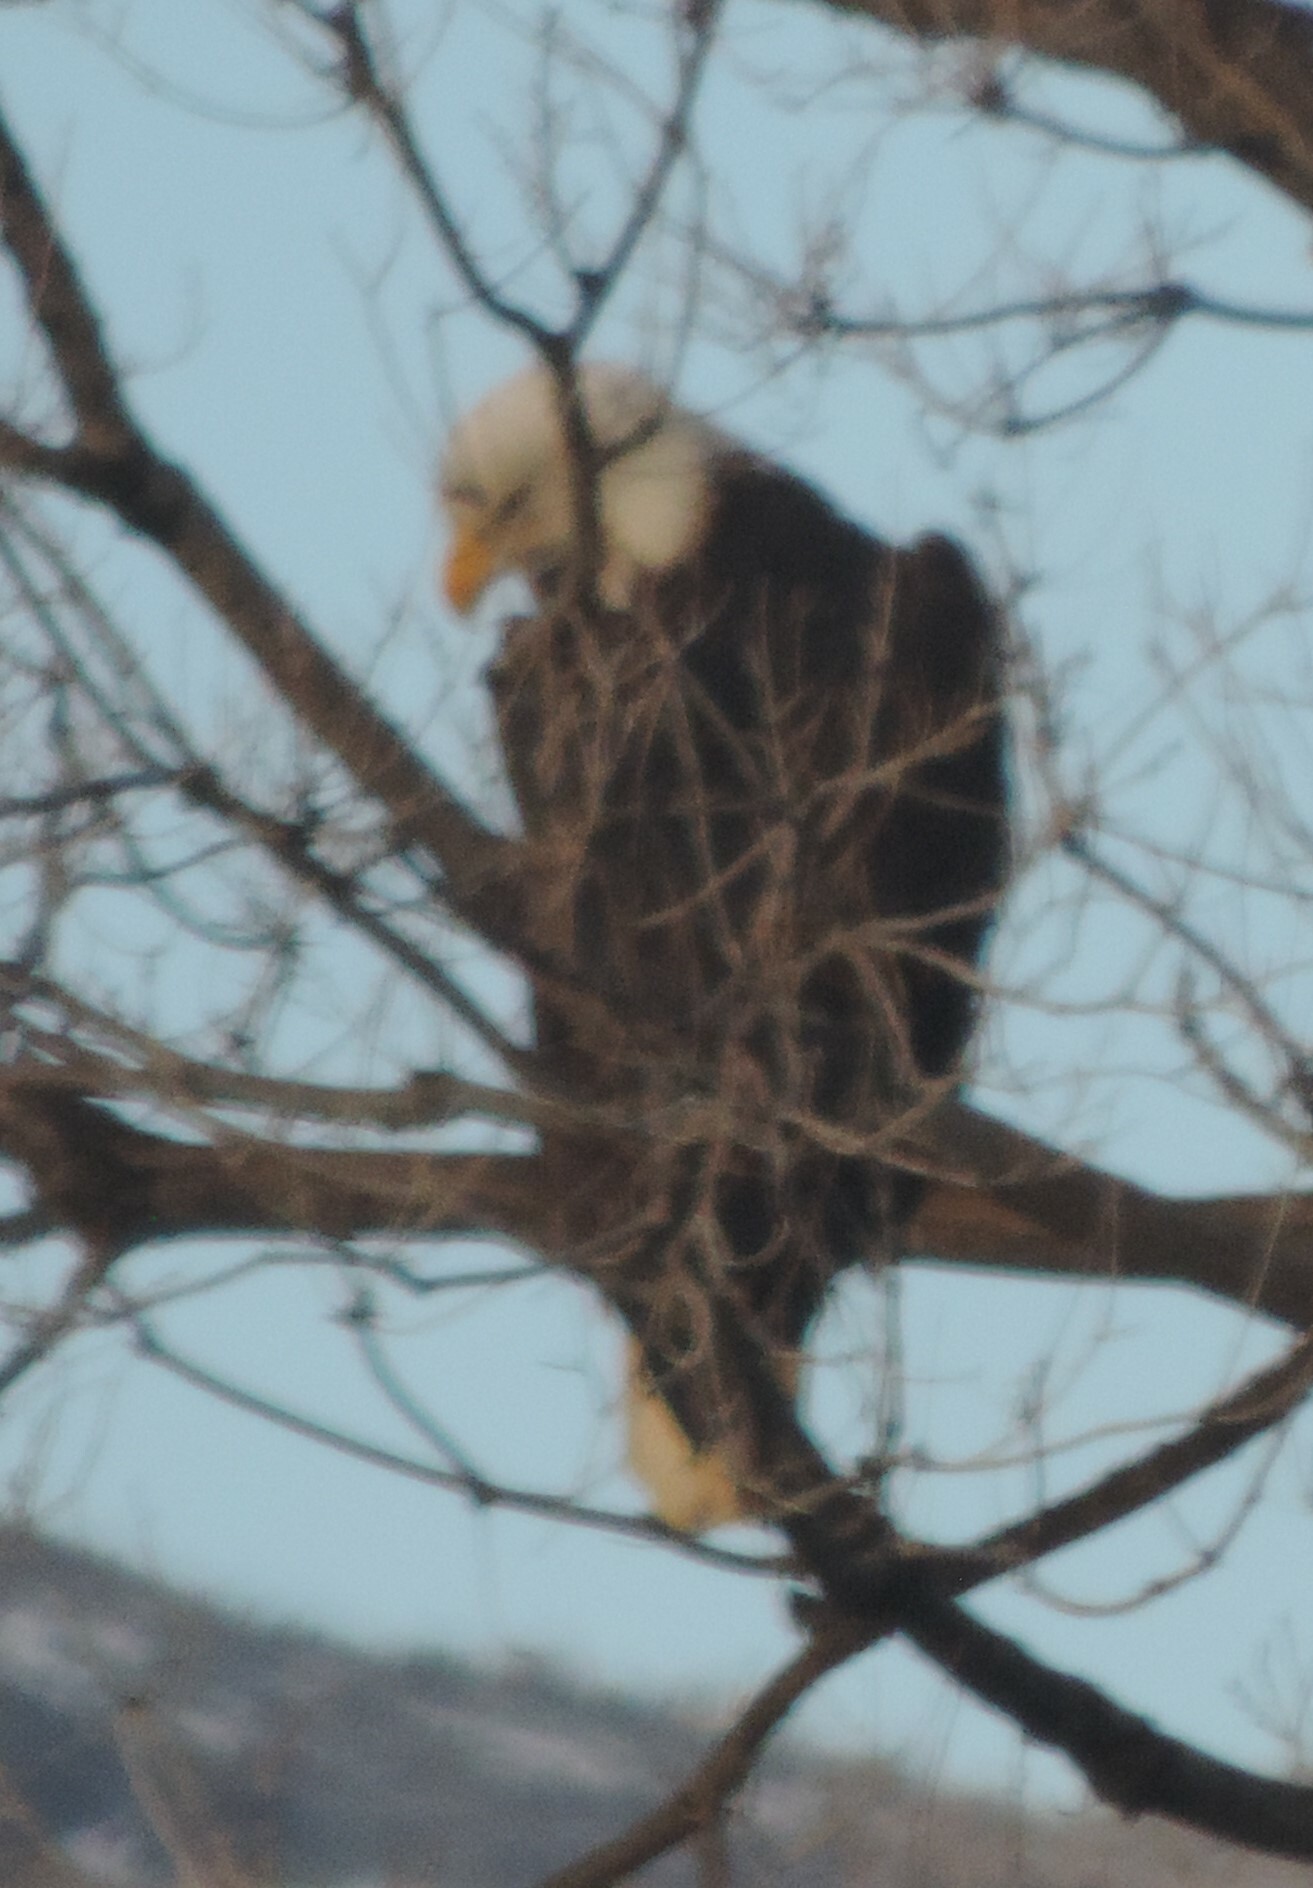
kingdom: Animalia
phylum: Chordata
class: Aves
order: Accipitriformes
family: Accipitridae
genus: Haliaeetus
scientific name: Haliaeetus leucocephalus
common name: Bald eagle
